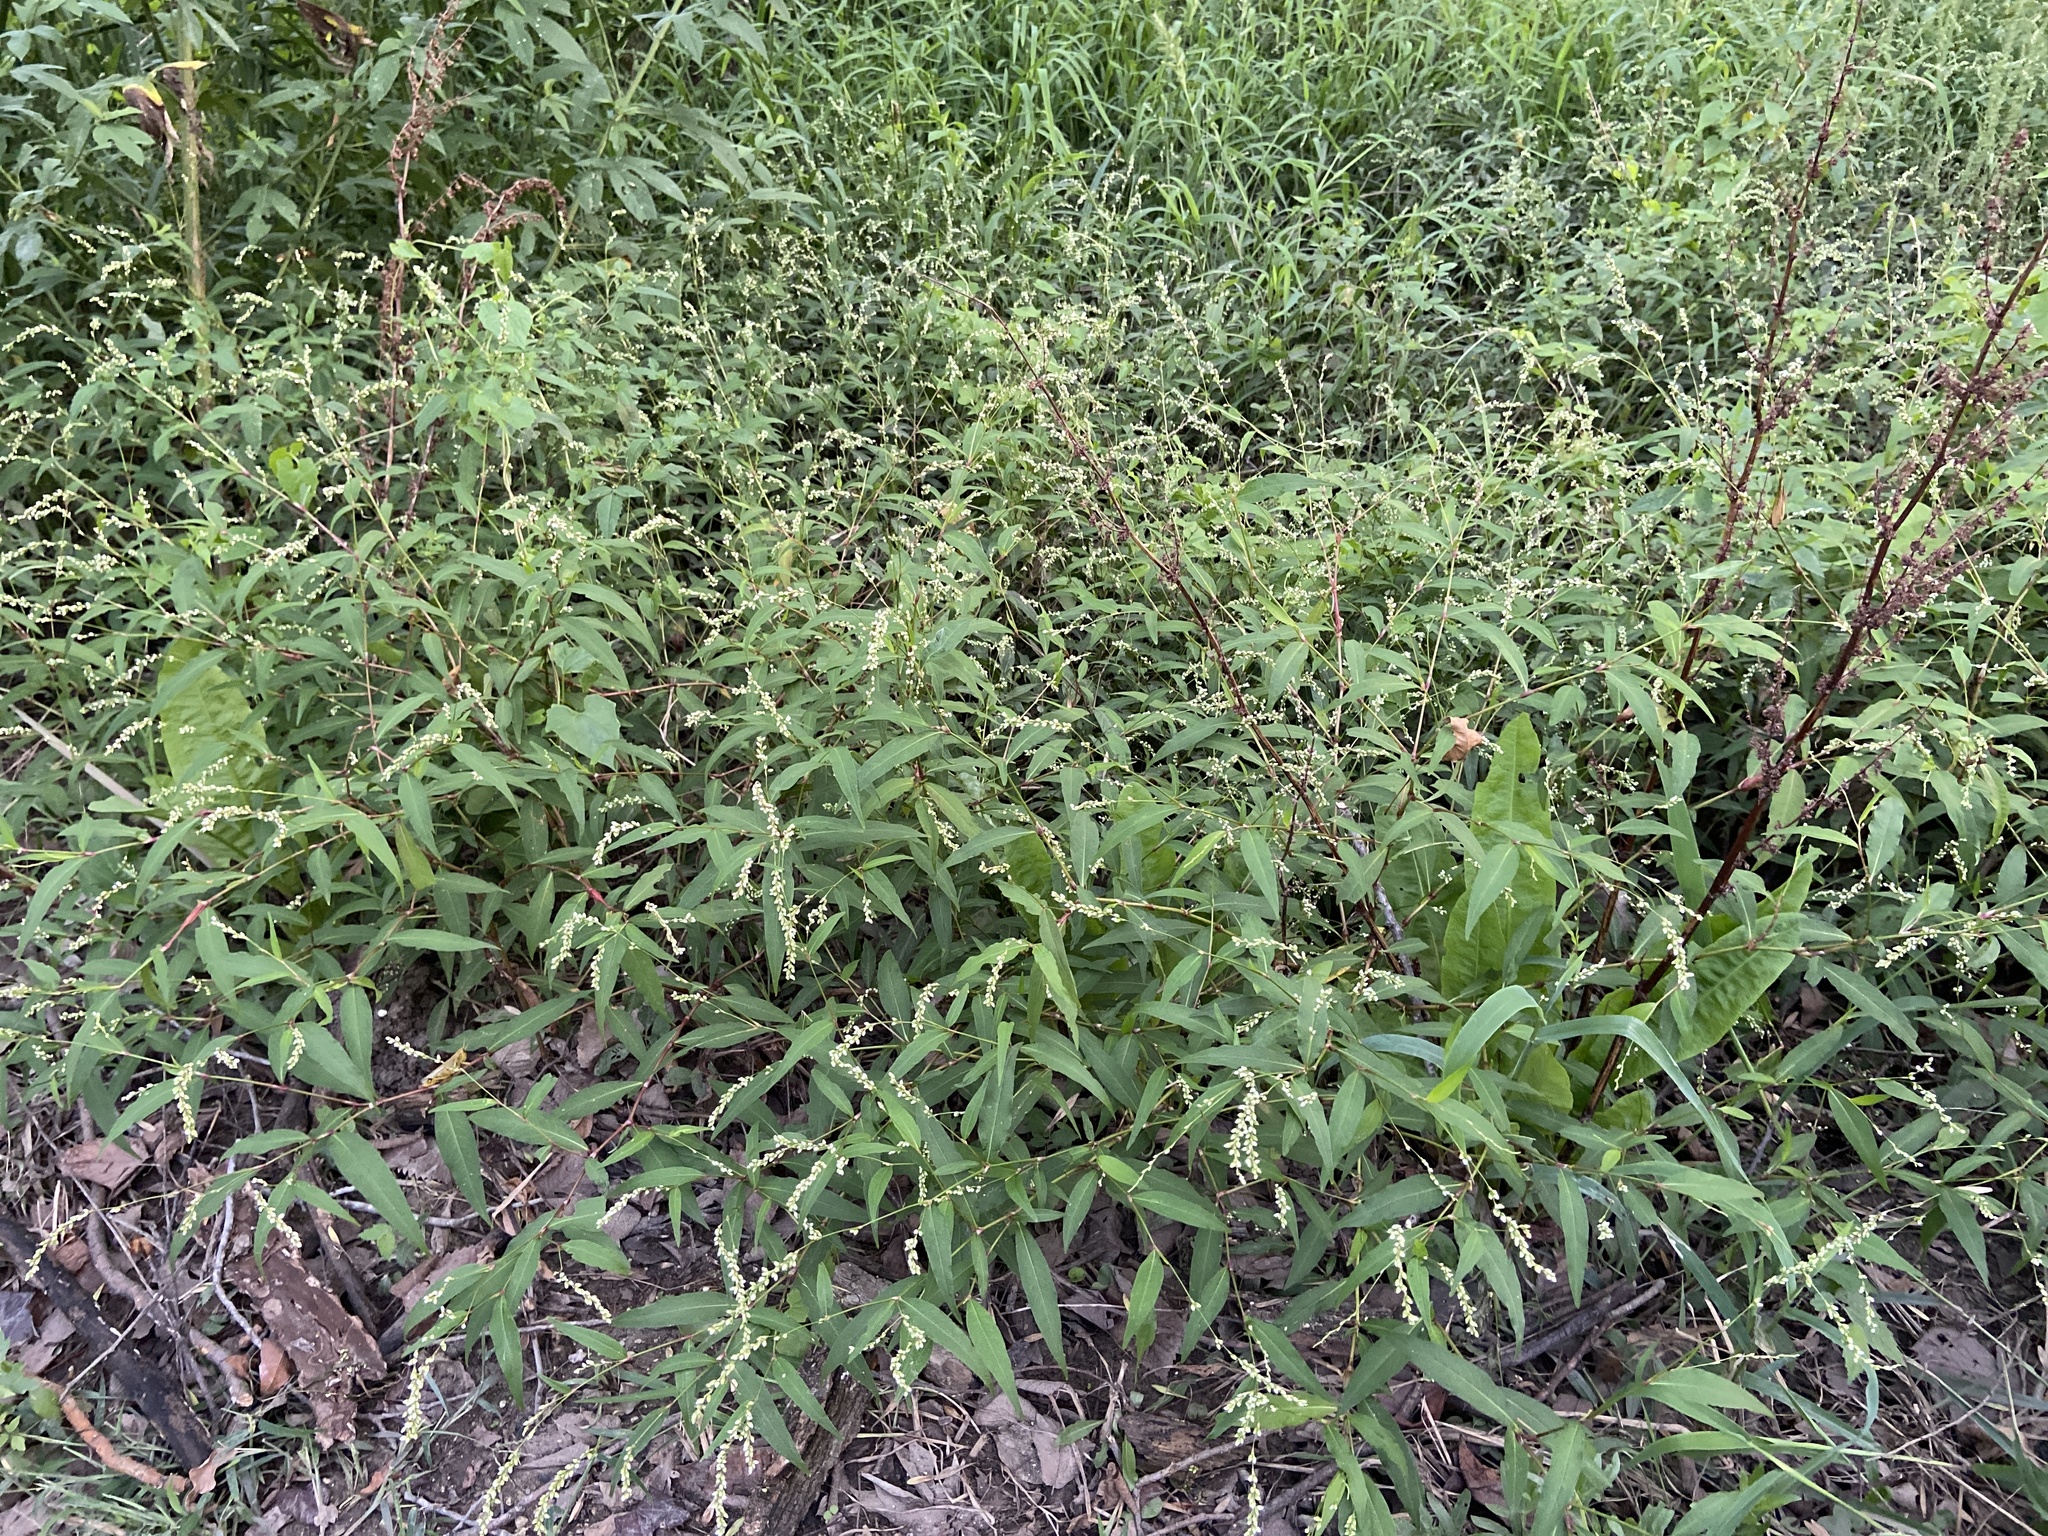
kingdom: Plantae
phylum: Tracheophyta
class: Magnoliopsida
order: Caryophyllales
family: Polygonaceae
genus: Persicaria
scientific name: Persicaria punctata
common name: Dotted smartweed
